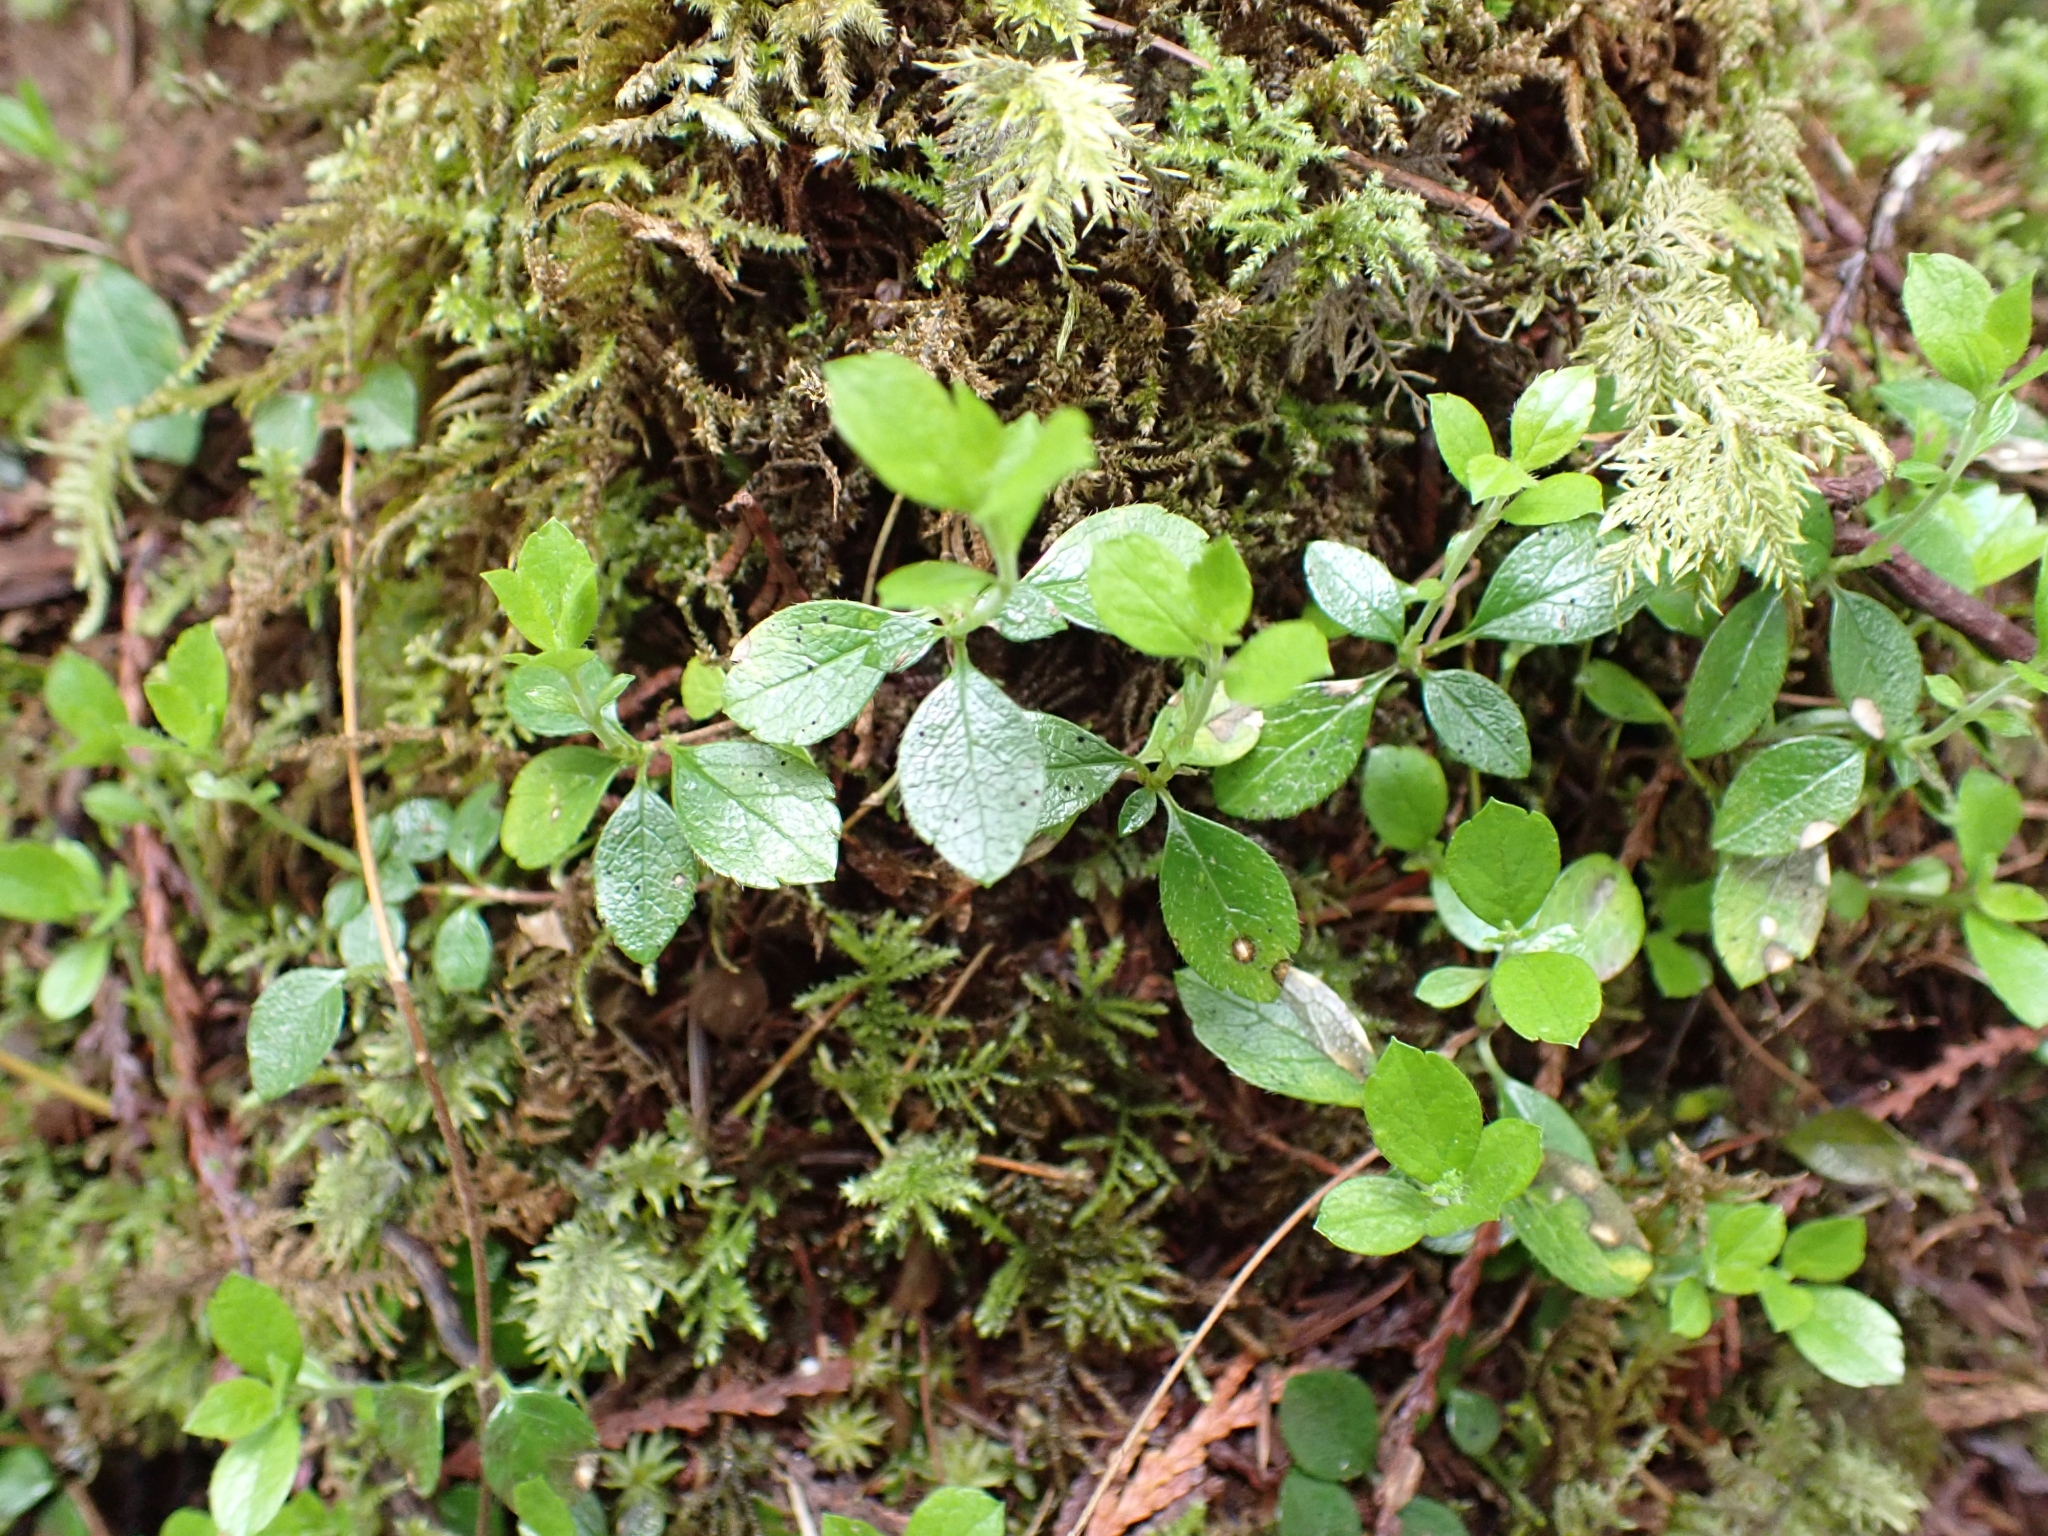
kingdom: Plantae
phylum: Tracheophyta
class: Magnoliopsida
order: Dipsacales
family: Caprifoliaceae
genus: Linnaea
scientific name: Linnaea borealis
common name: Twinflower
